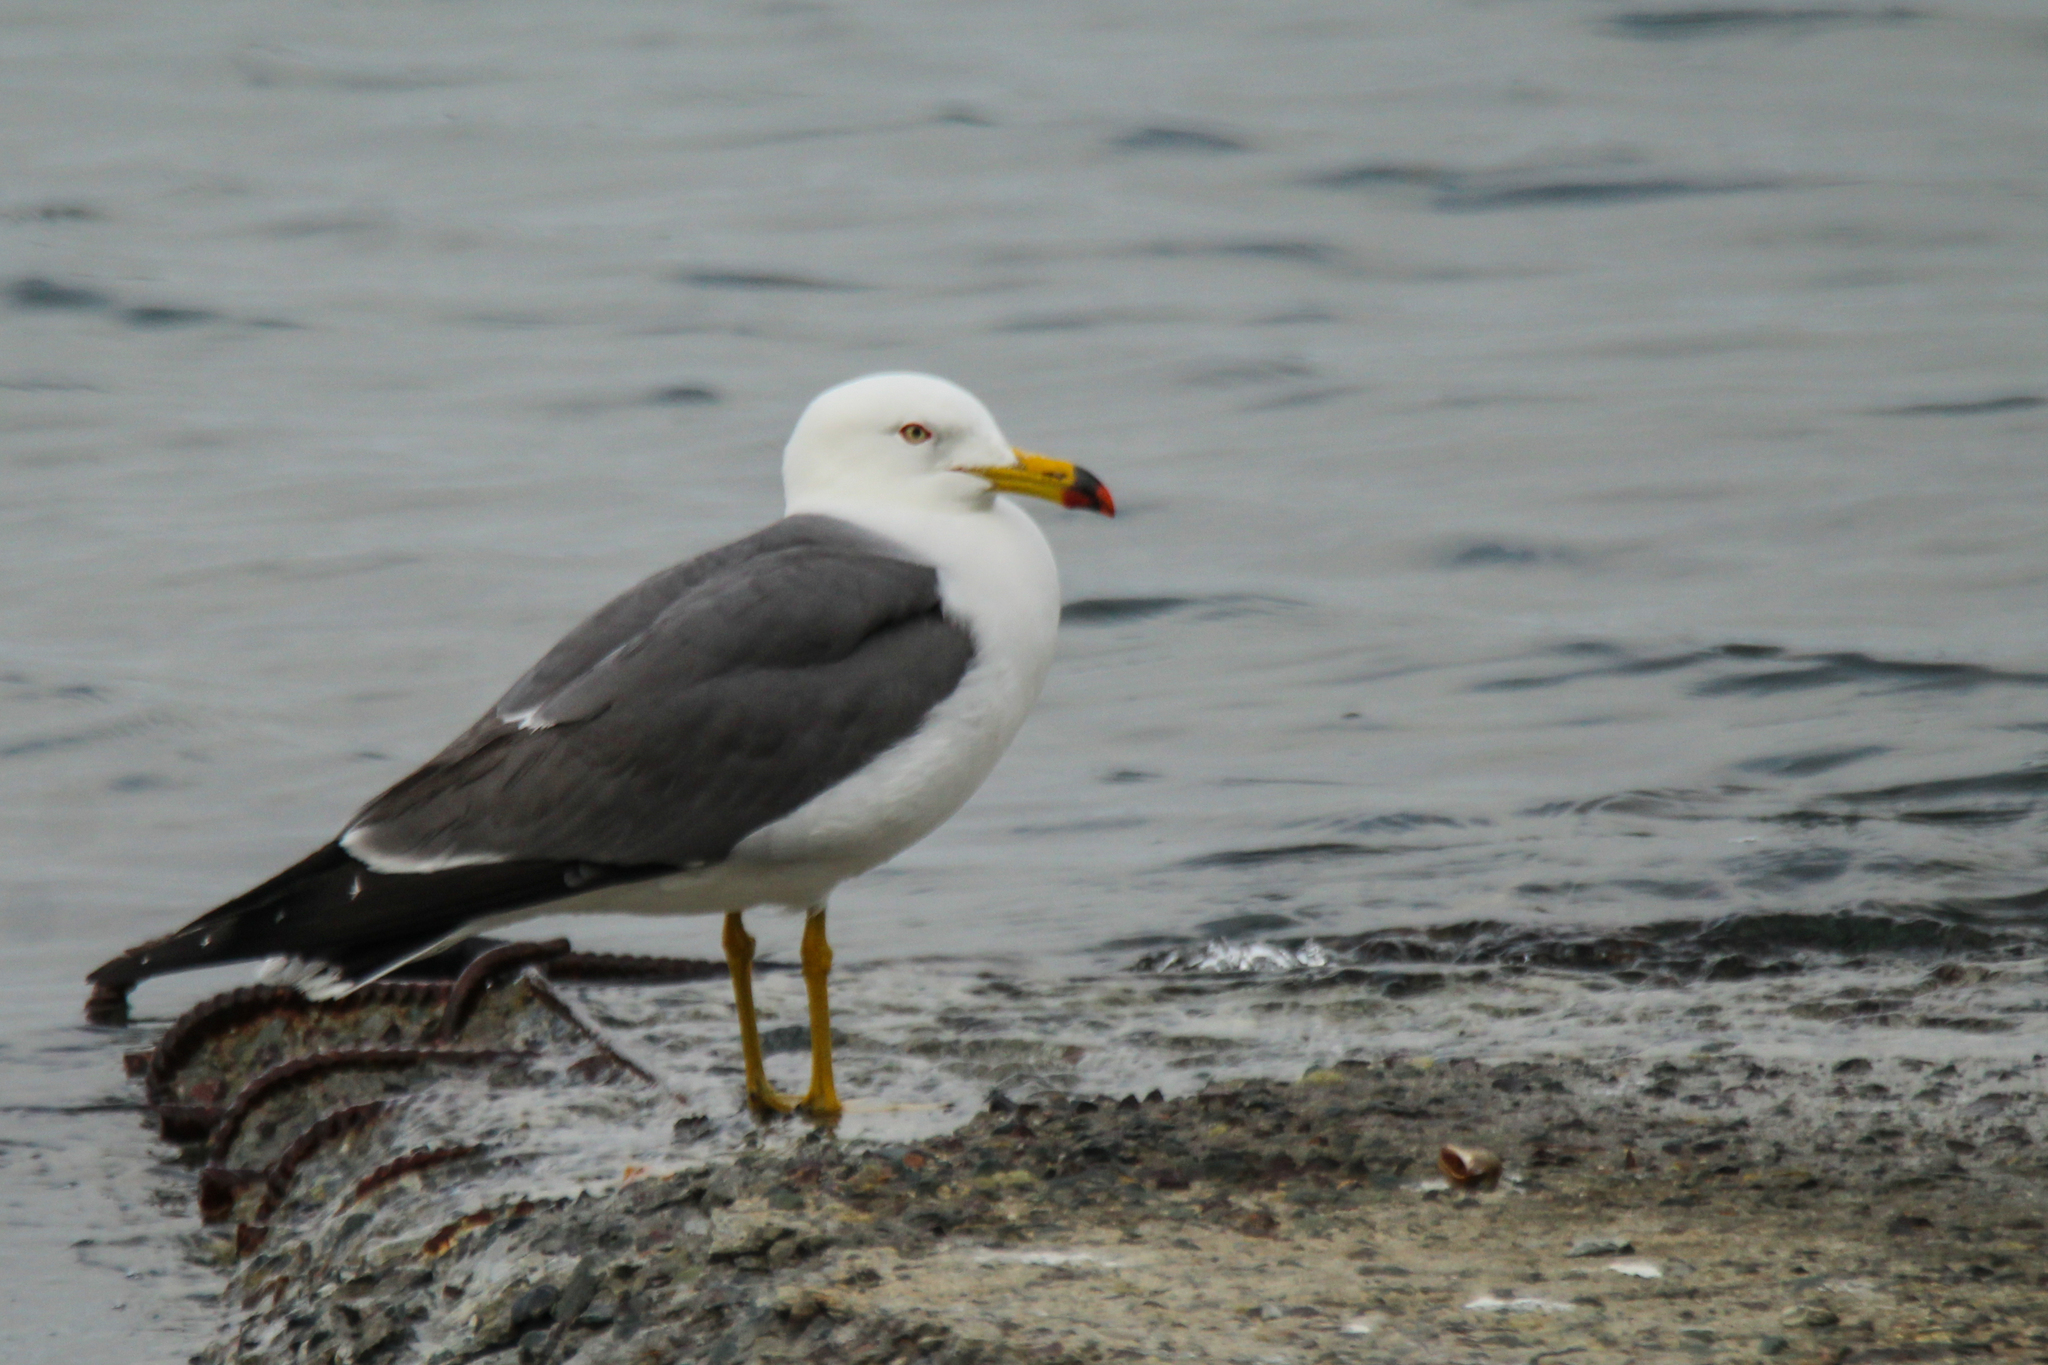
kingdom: Animalia
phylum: Chordata
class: Aves
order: Charadriiformes
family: Laridae
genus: Larus
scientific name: Larus crassirostris
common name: Black-tailed gull
